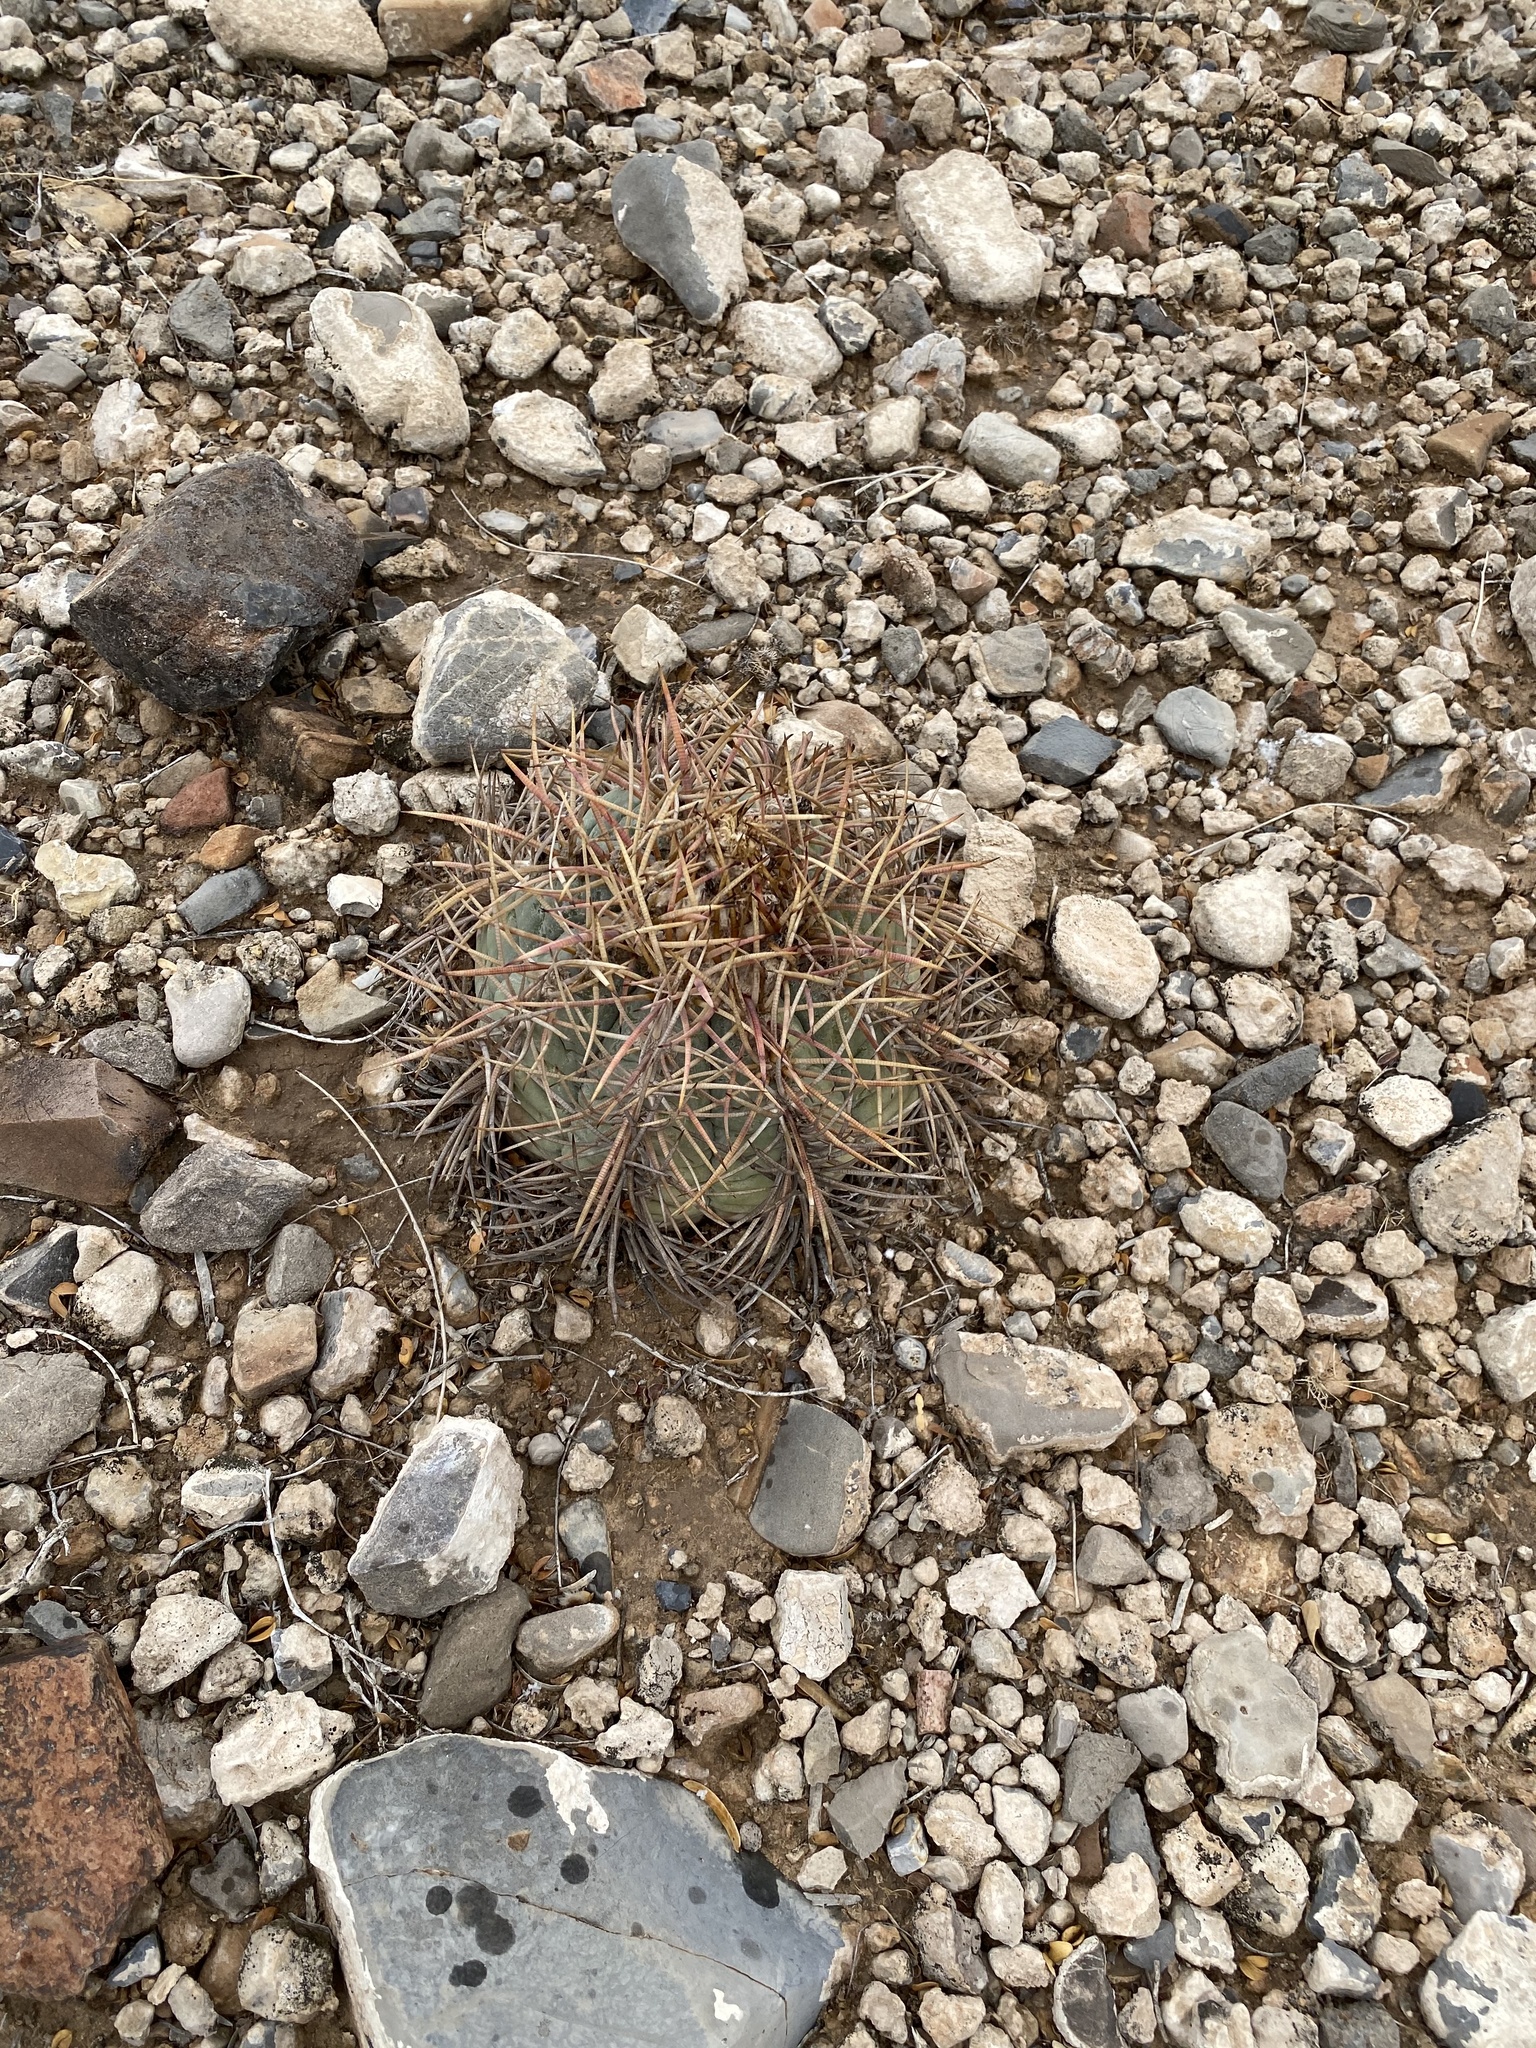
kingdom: Plantae
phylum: Tracheophyta
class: Magnoliopsida
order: Caryophyllales
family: Cactaceae
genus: Echinocactus
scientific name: Echinocactus horizonthalonius
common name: Devilshead
